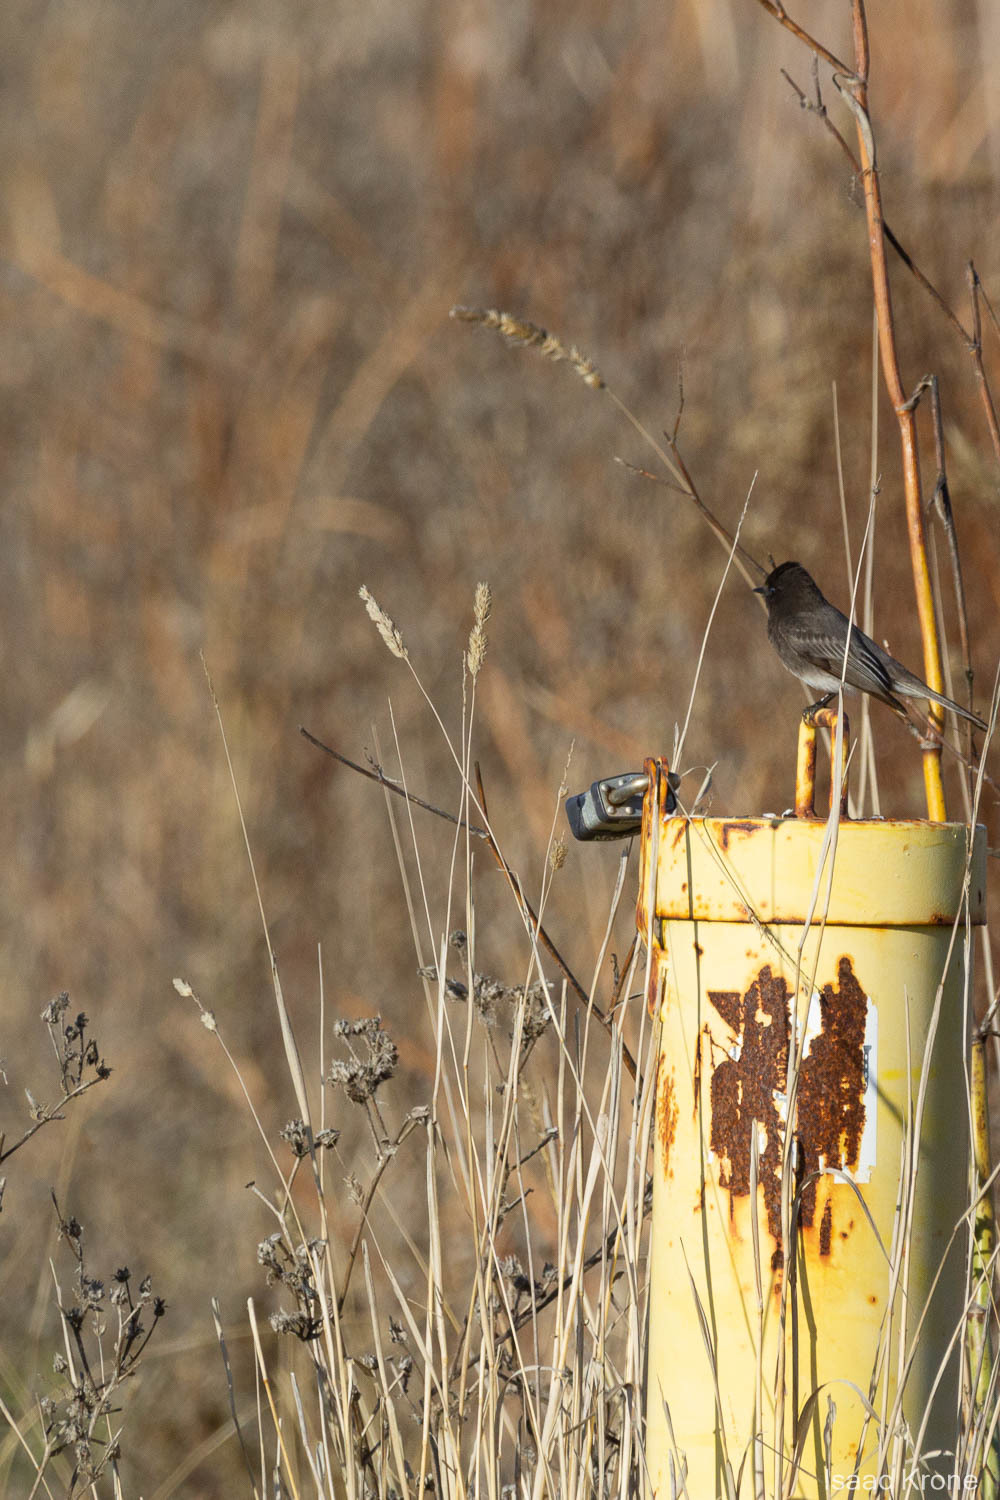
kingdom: Animalia
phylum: Chordata
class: Aves
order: Passeriformes
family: Tyrannidae
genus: Sayornis
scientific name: Sayornis nigricans
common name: Black phoebe
